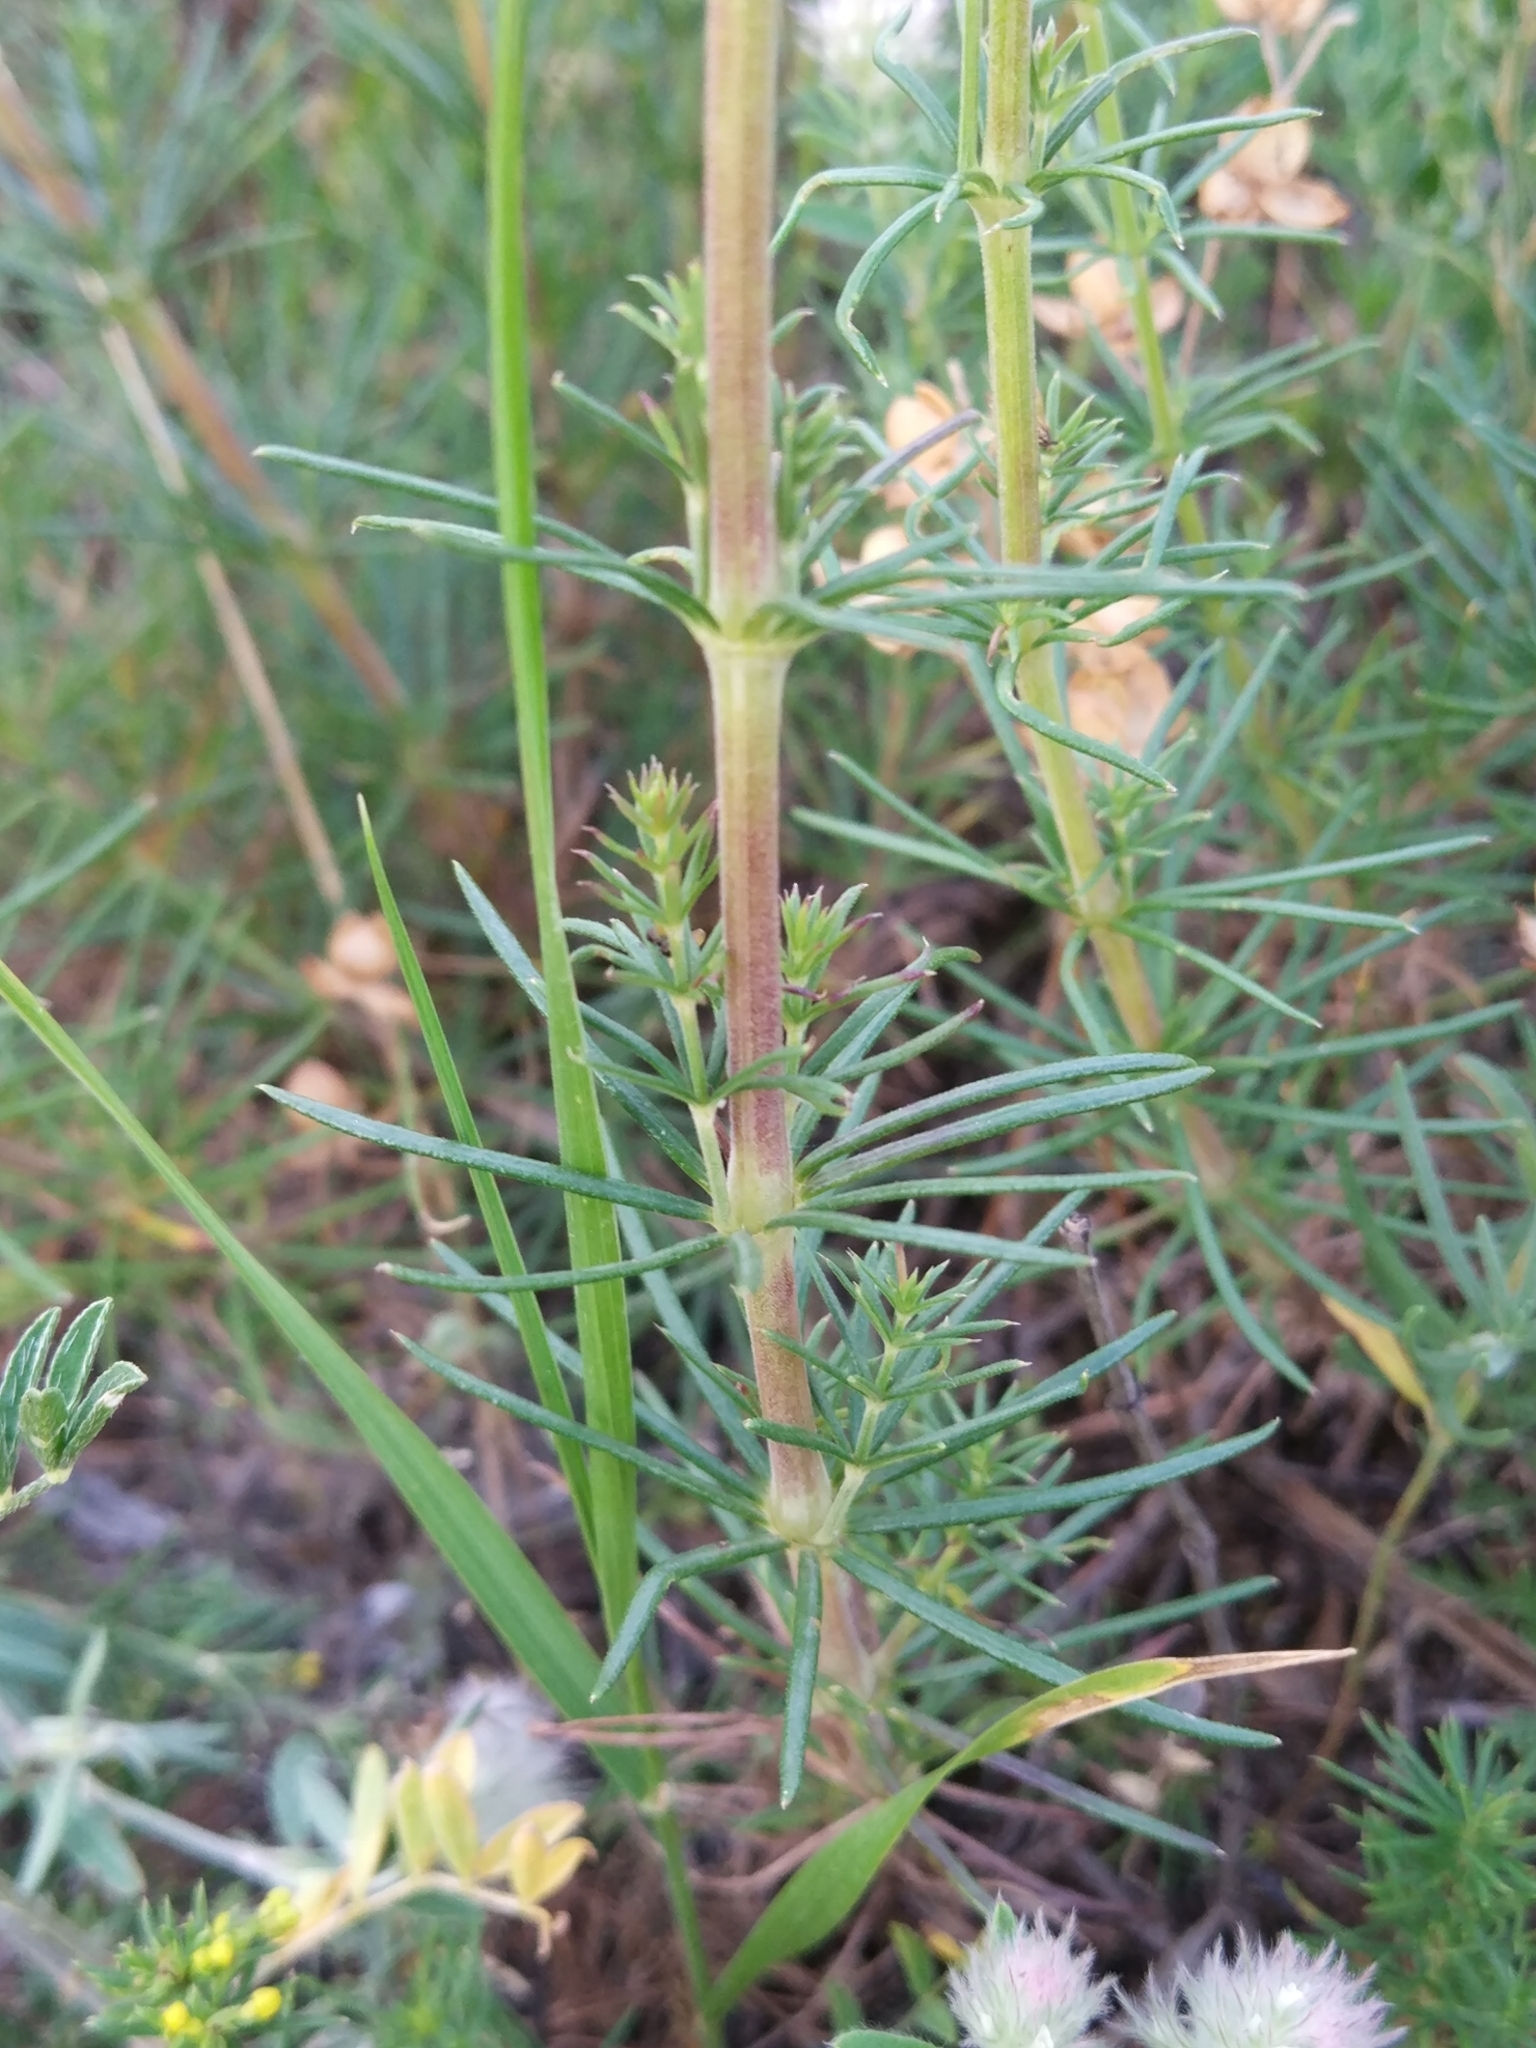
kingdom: Plantae
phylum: Tracheophyta
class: Magnoliopsida
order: Gentianales
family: Rubiaceae
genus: Galium
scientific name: Galium verum
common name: Lady's bedstraw
